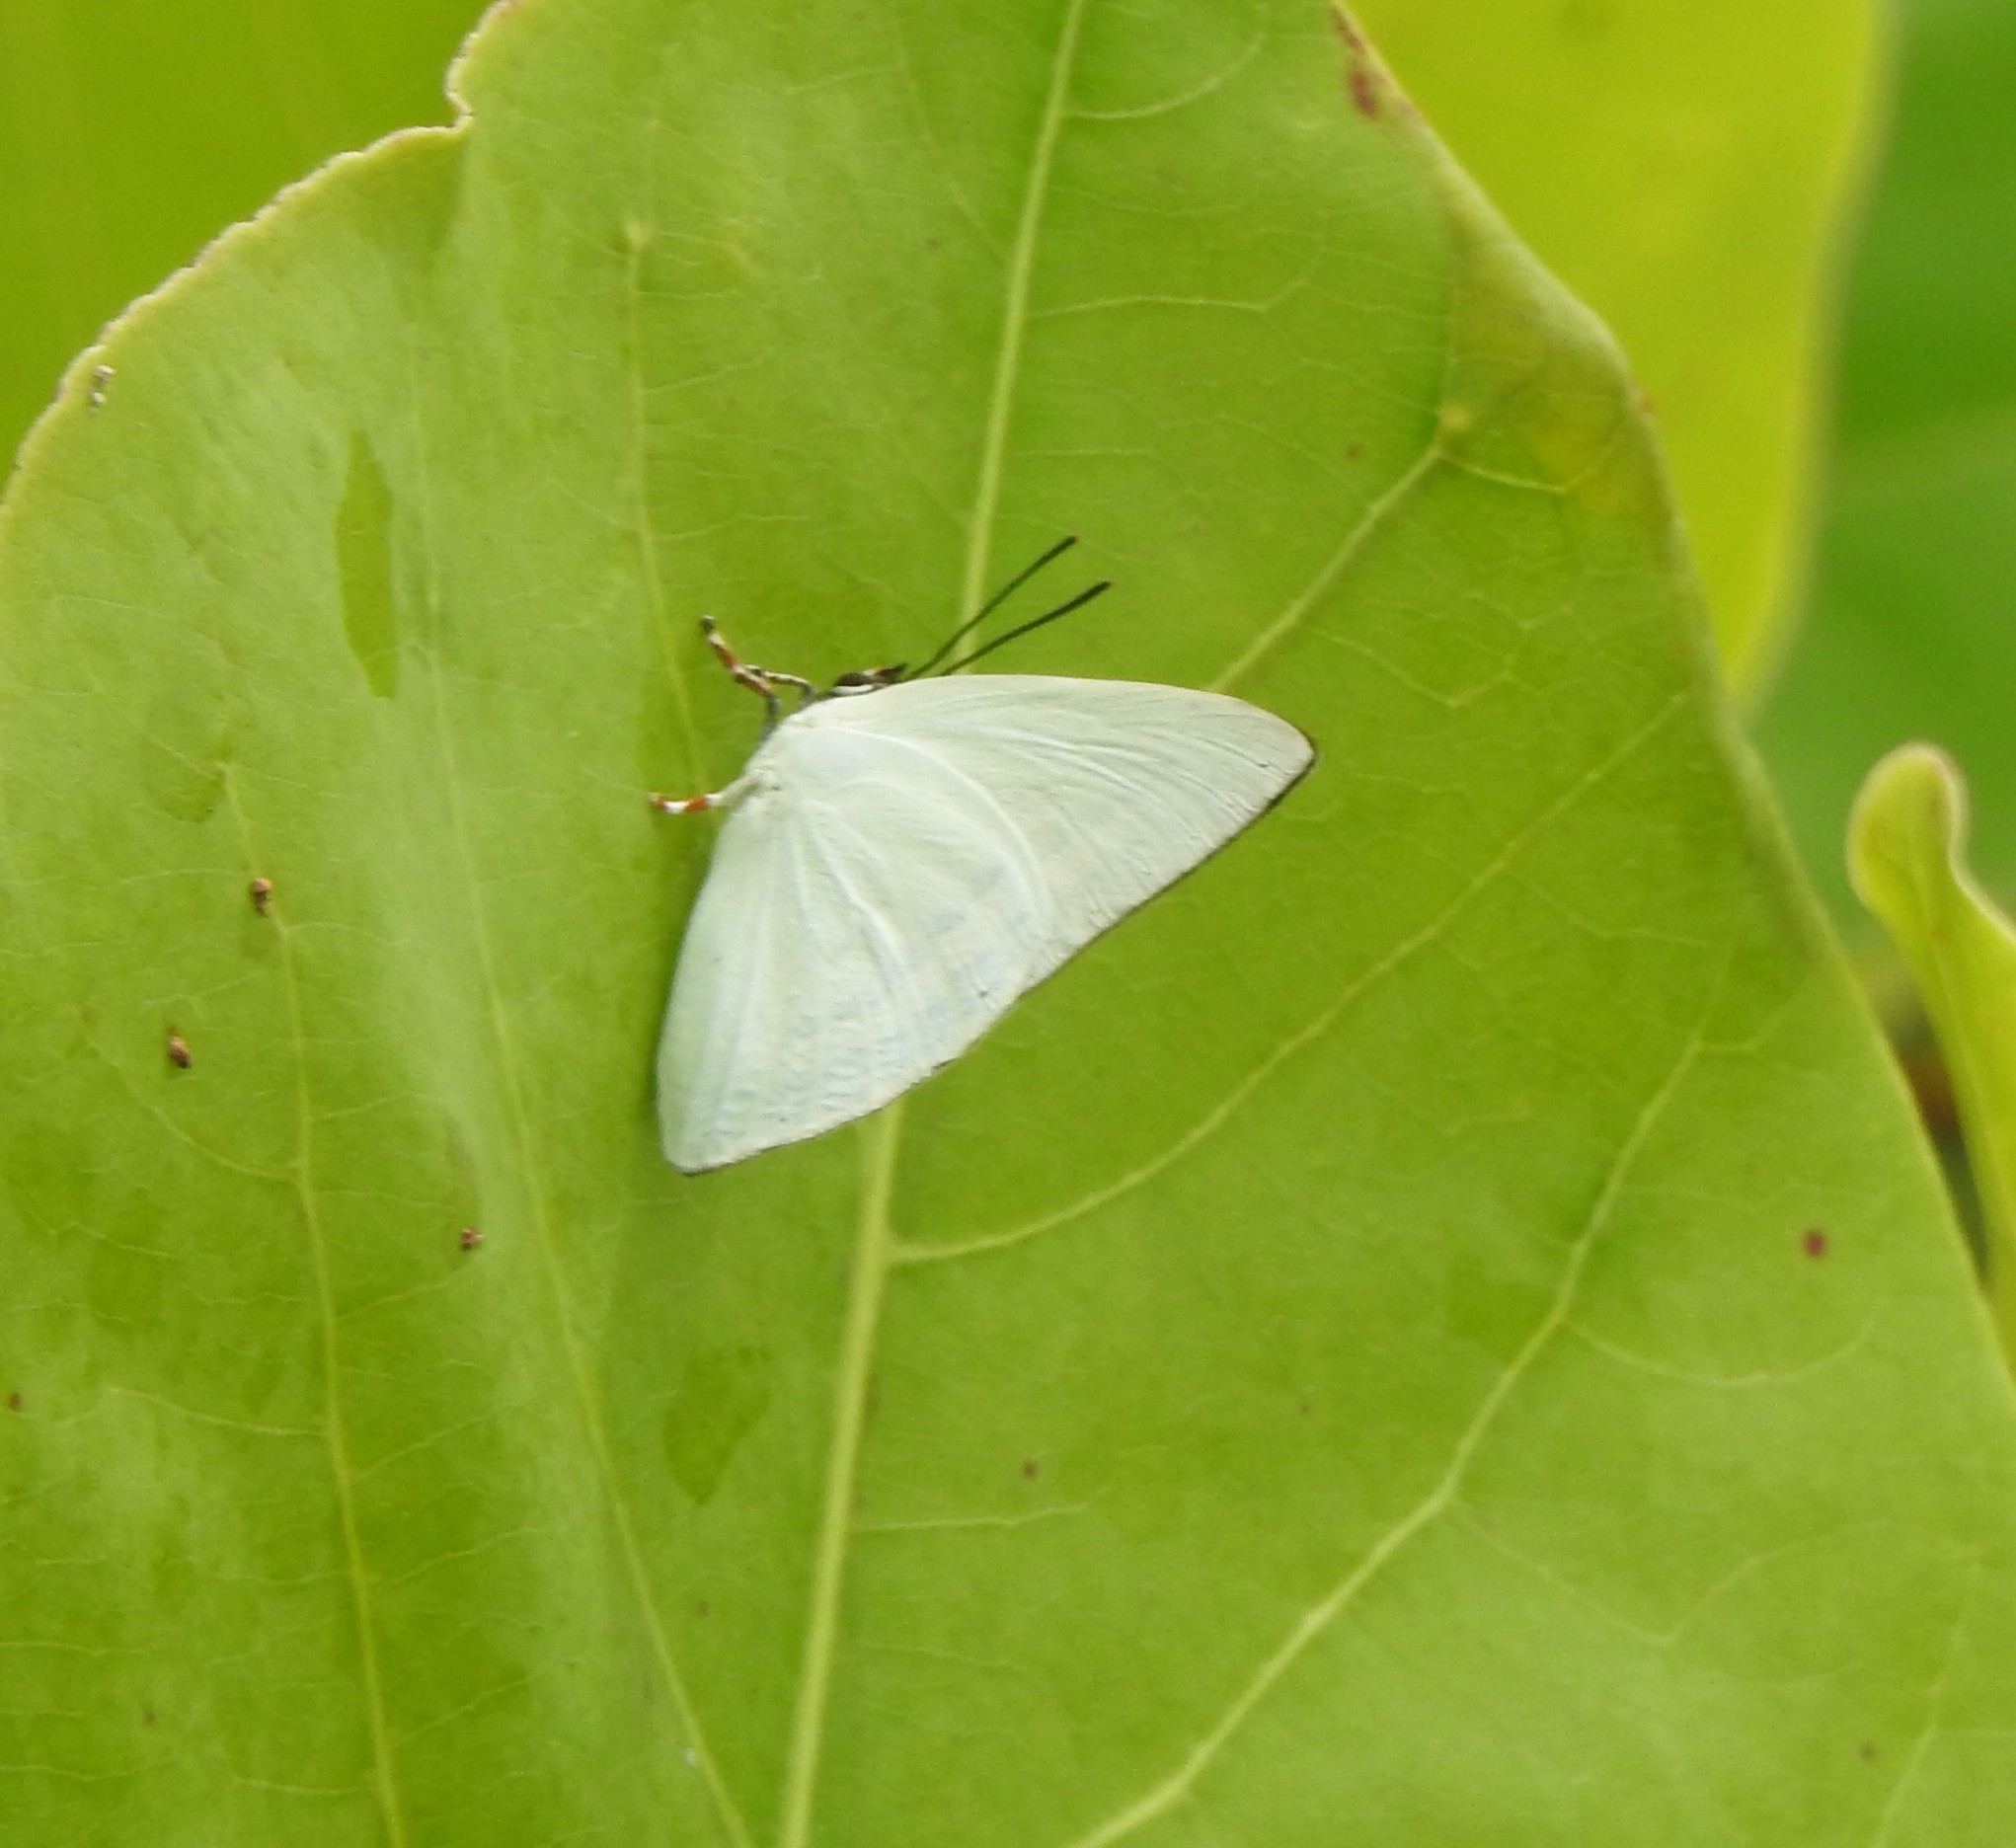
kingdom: Animalia
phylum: Arthropoda
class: Insecta
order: Lepidoptera
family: Lycaenidae
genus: Curetis
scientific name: Curetis thetis
